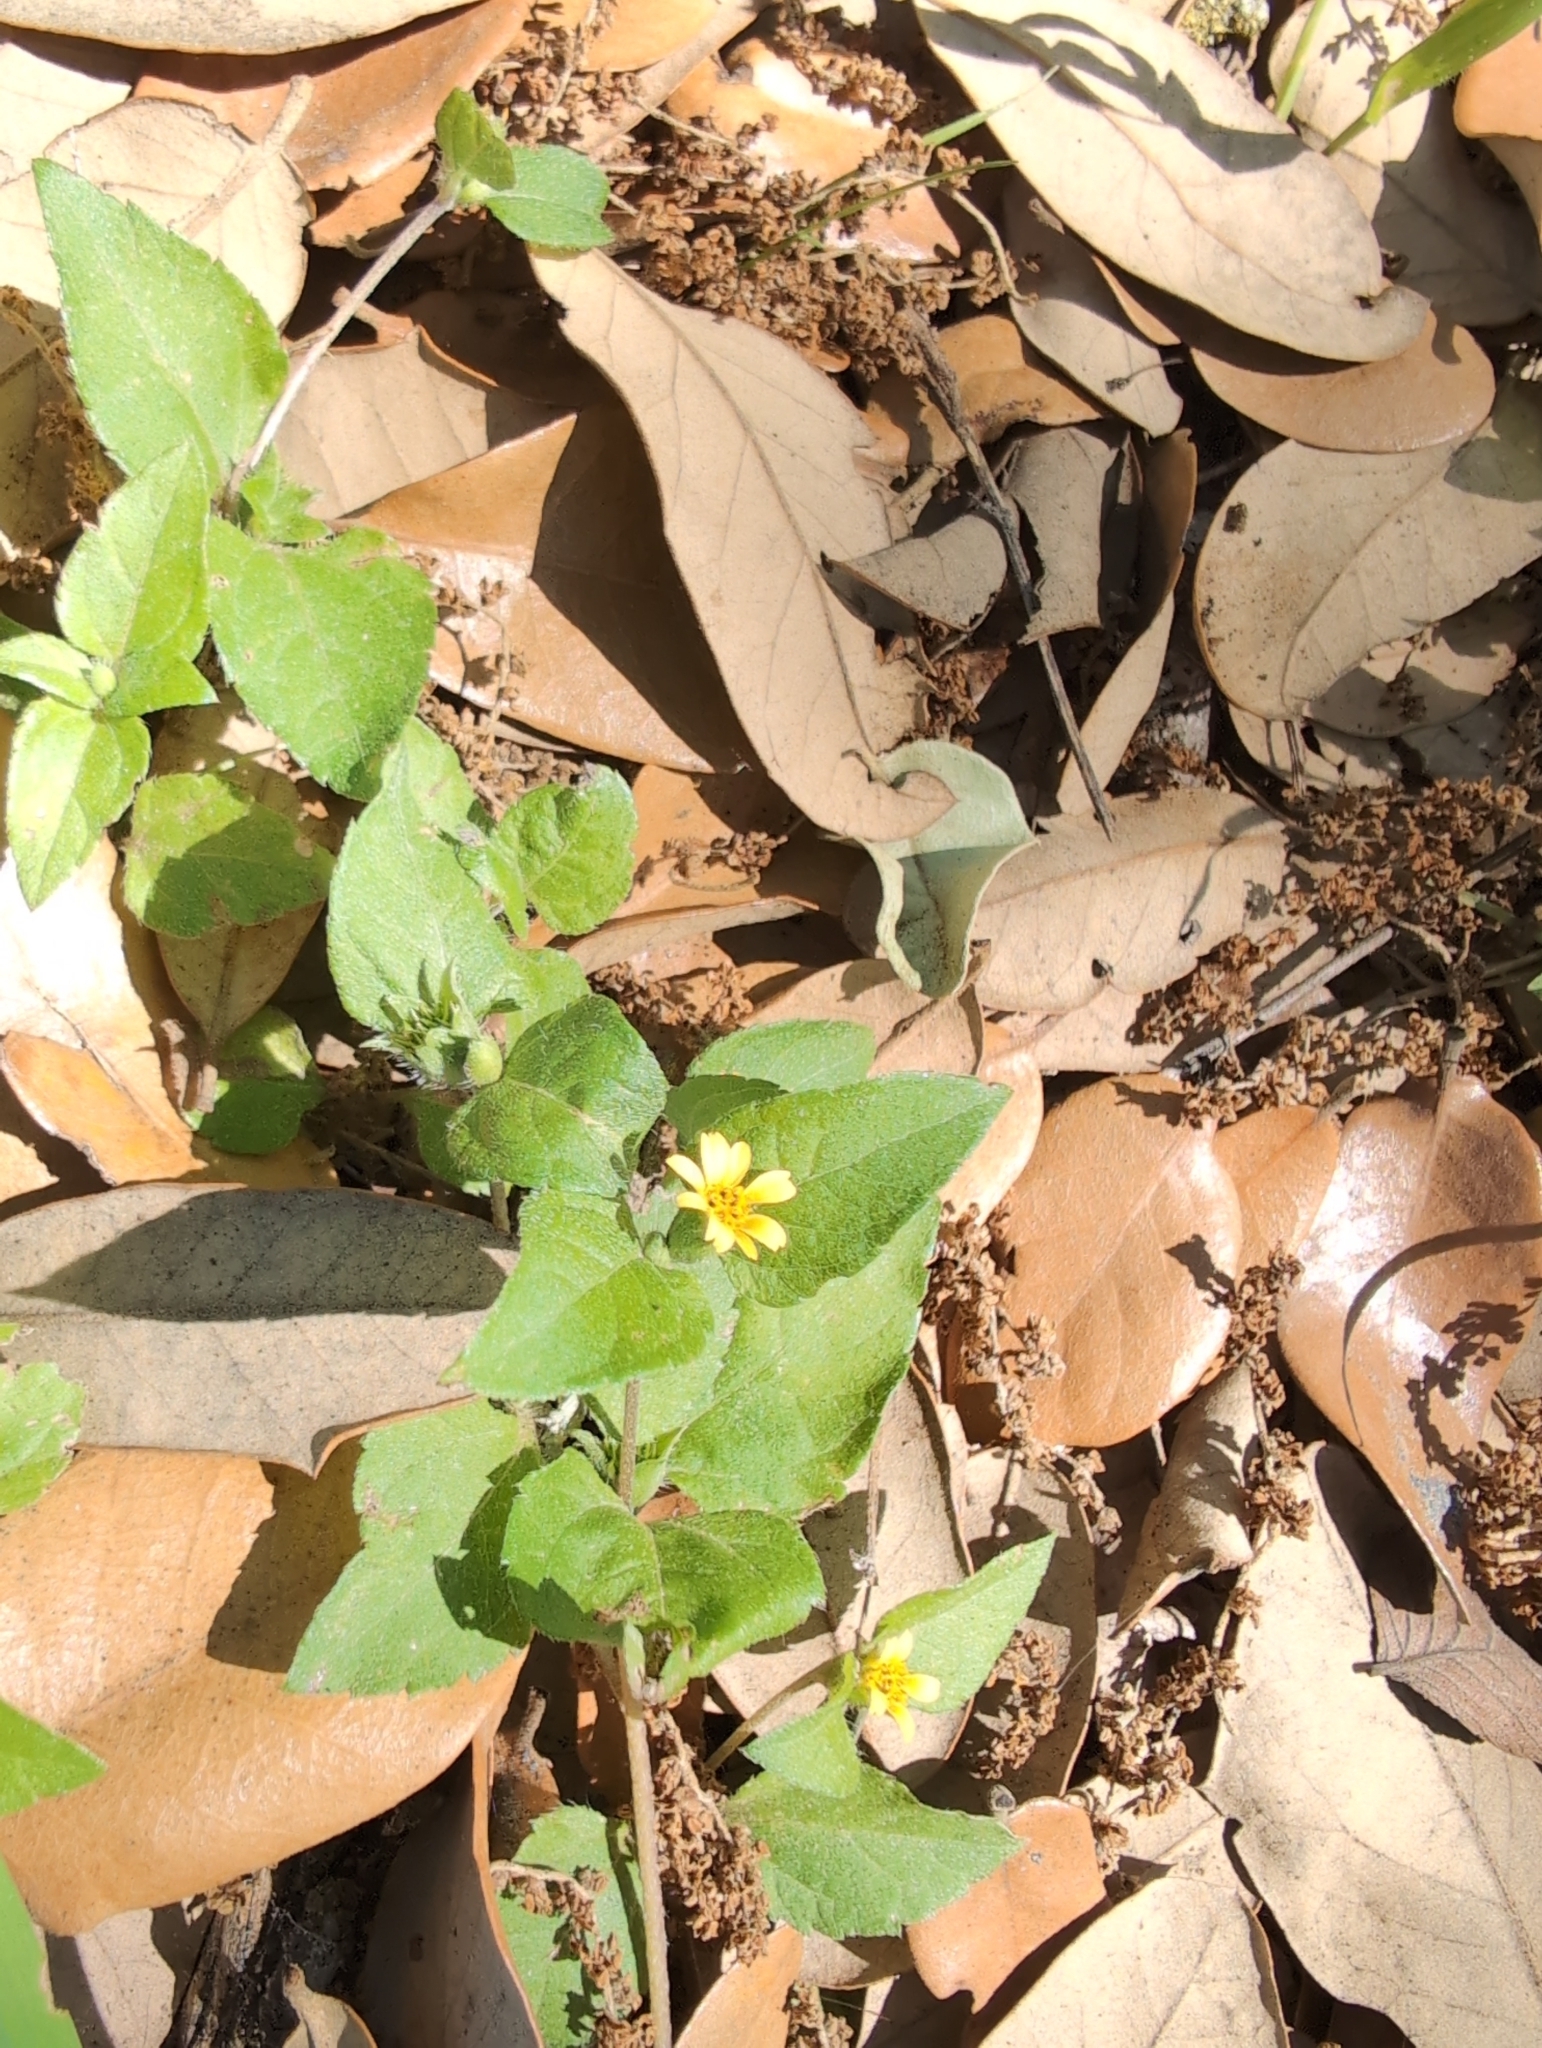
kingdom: Plantae
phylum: Tracheophyta
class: Magnoliopsida
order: Asterales
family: Asteraceae
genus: Calyptocarpus
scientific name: Calyptocarpus vialis
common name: Straggler daisy
